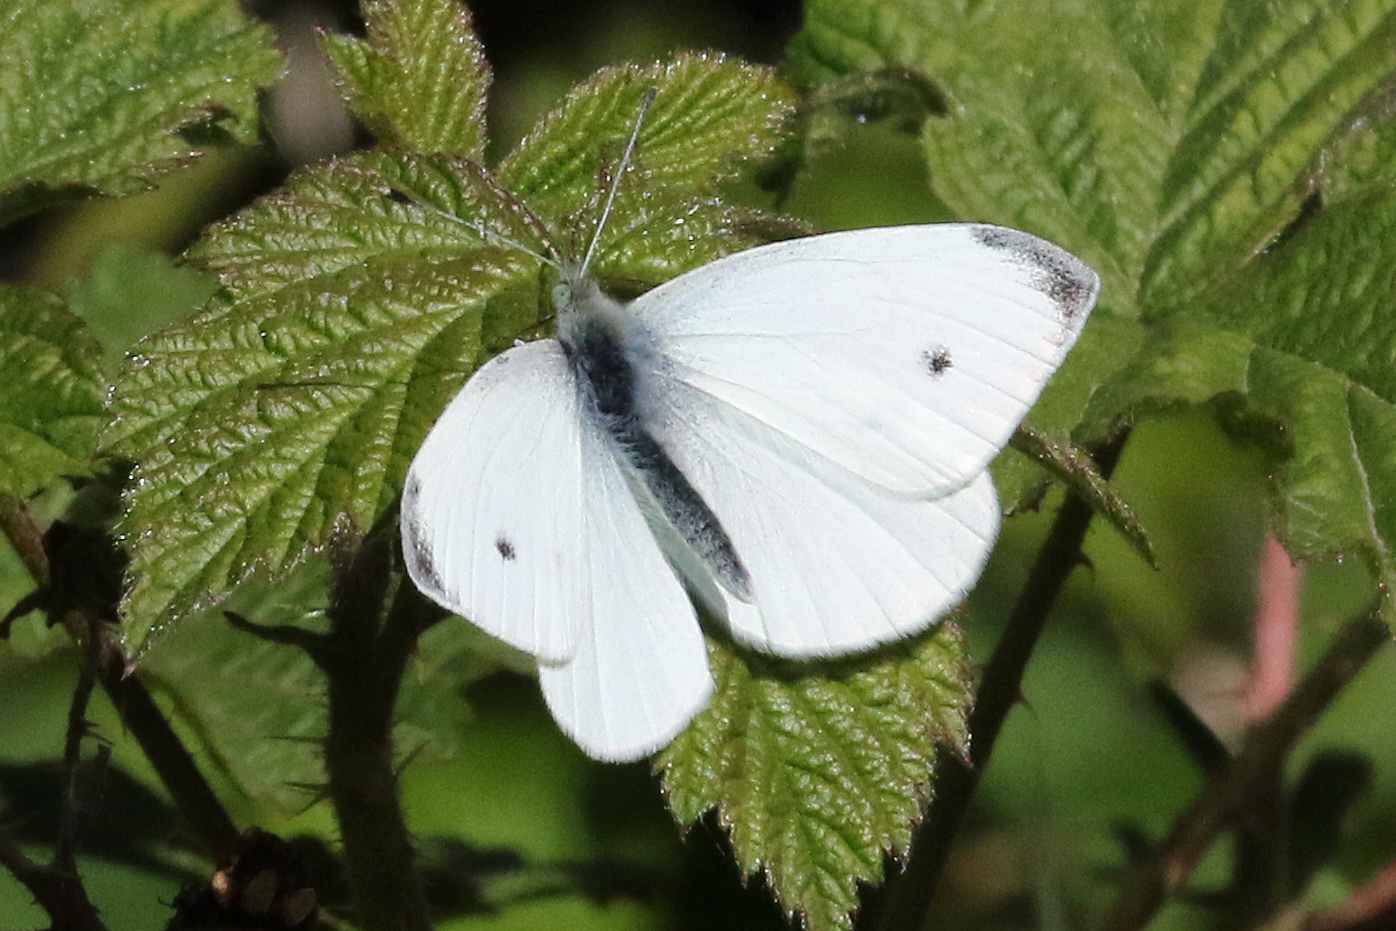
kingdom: Animalia
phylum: Arthropoda
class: Insecta
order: Lepidoptera
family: Pieridae
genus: Pieris
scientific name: Pieris rapae
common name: Small white
